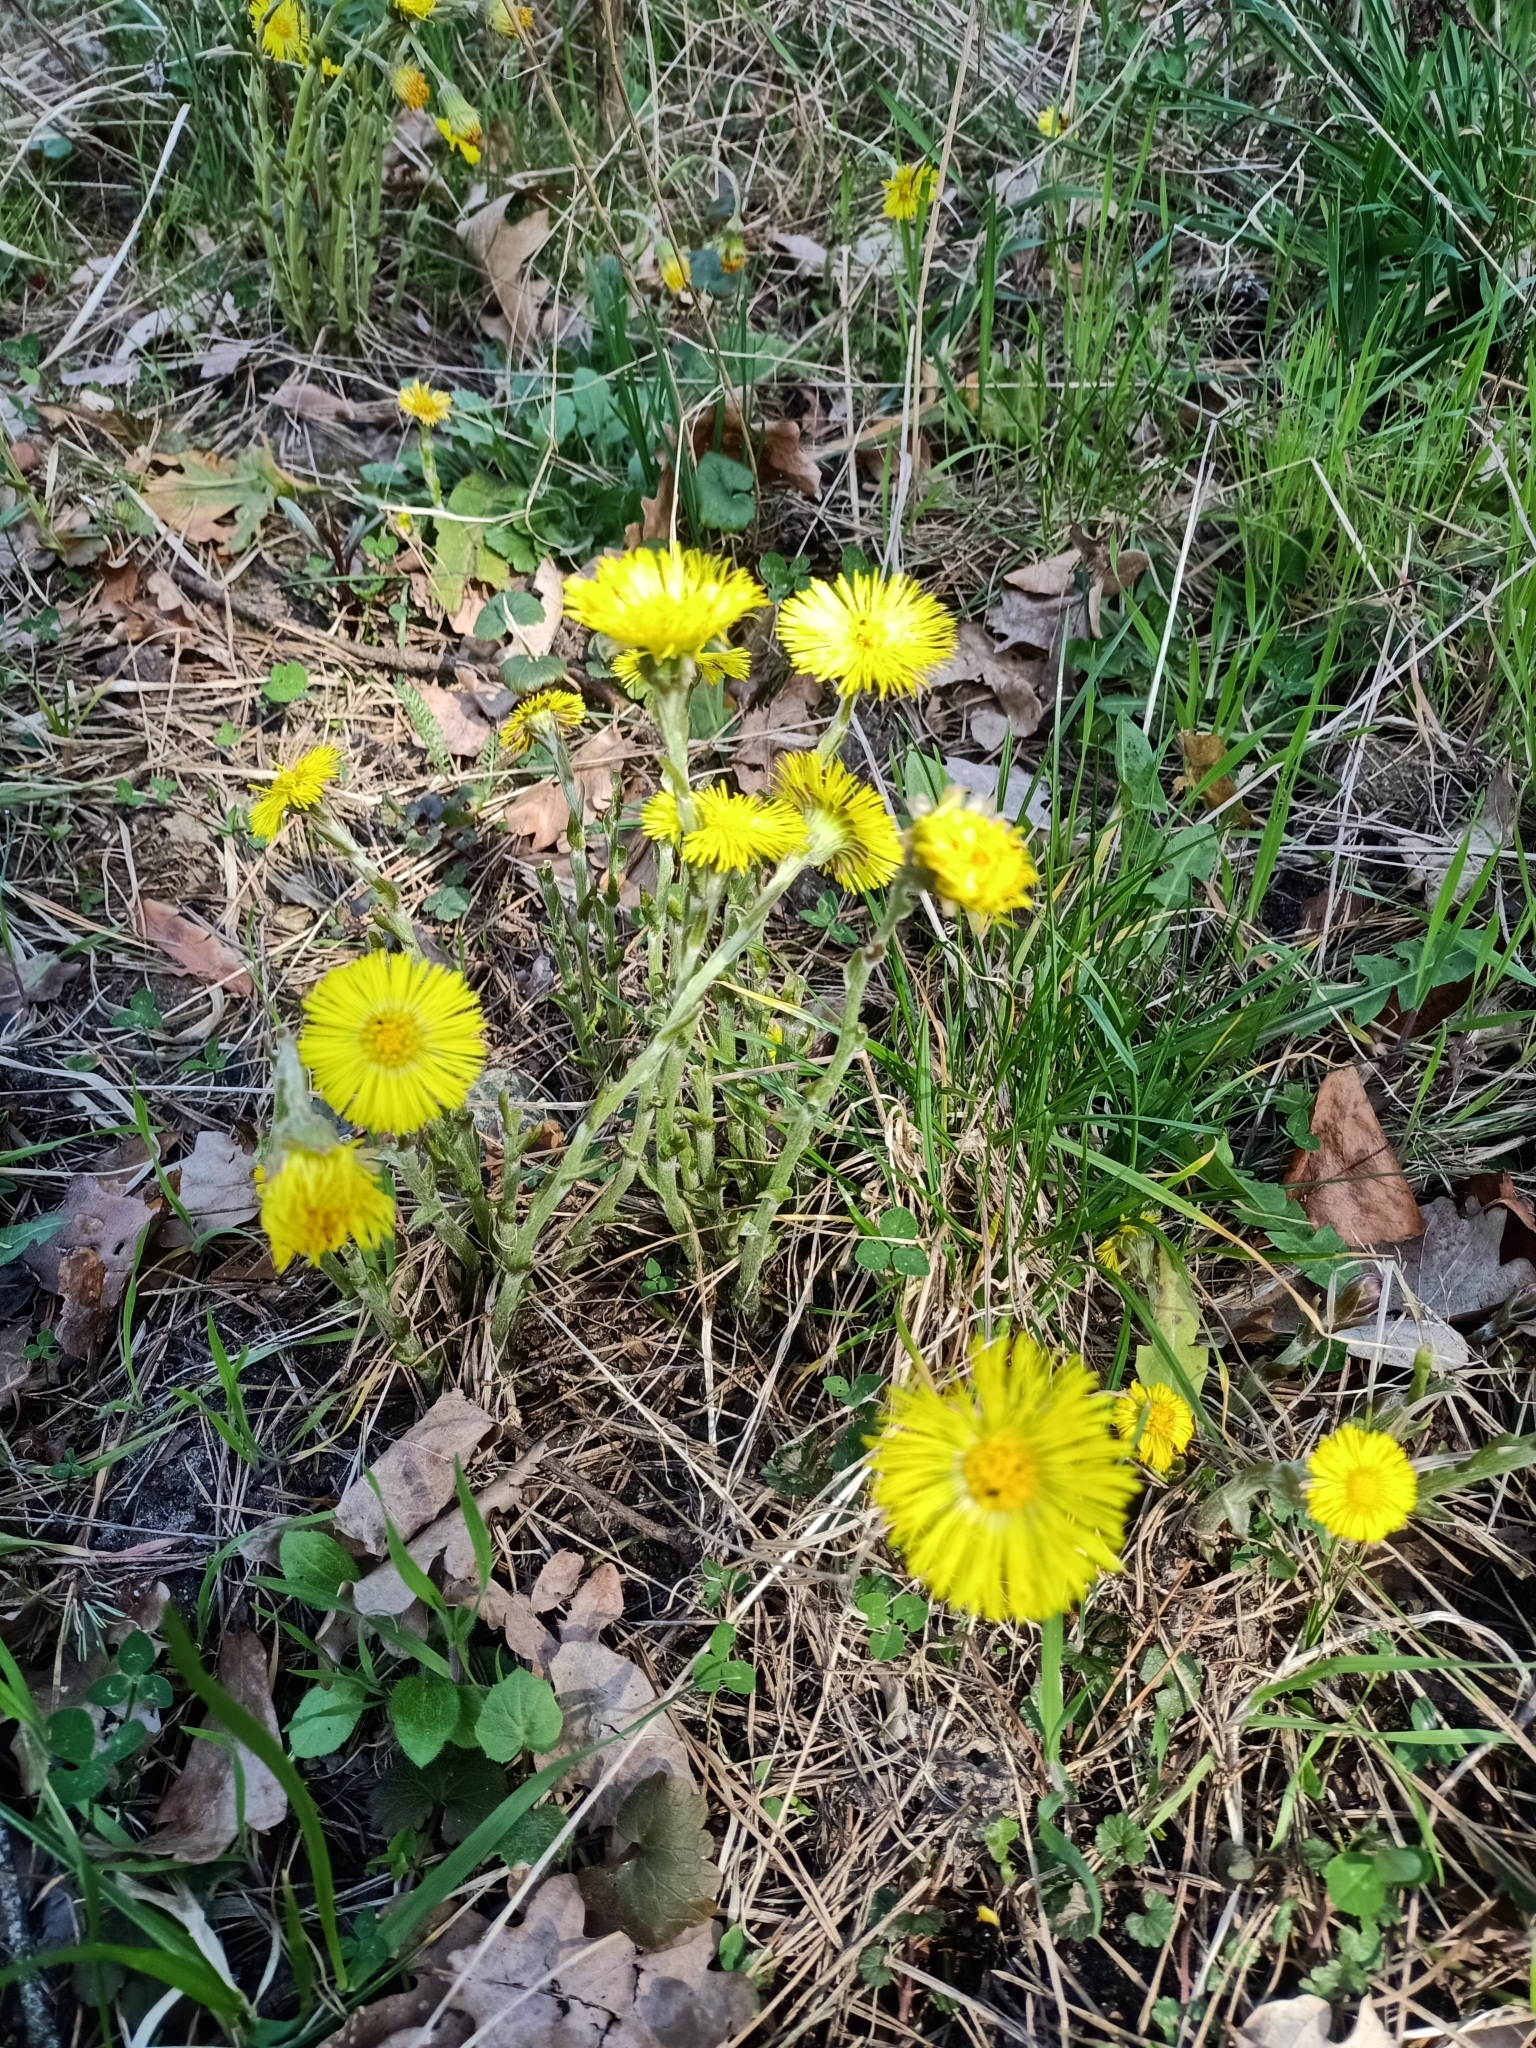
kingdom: Plantae
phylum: Tracheophyta
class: Magnoliopsida
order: Asterales
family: Asteraceae
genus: Tussilago
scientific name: Tussilago farfara
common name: Coltsfoot
